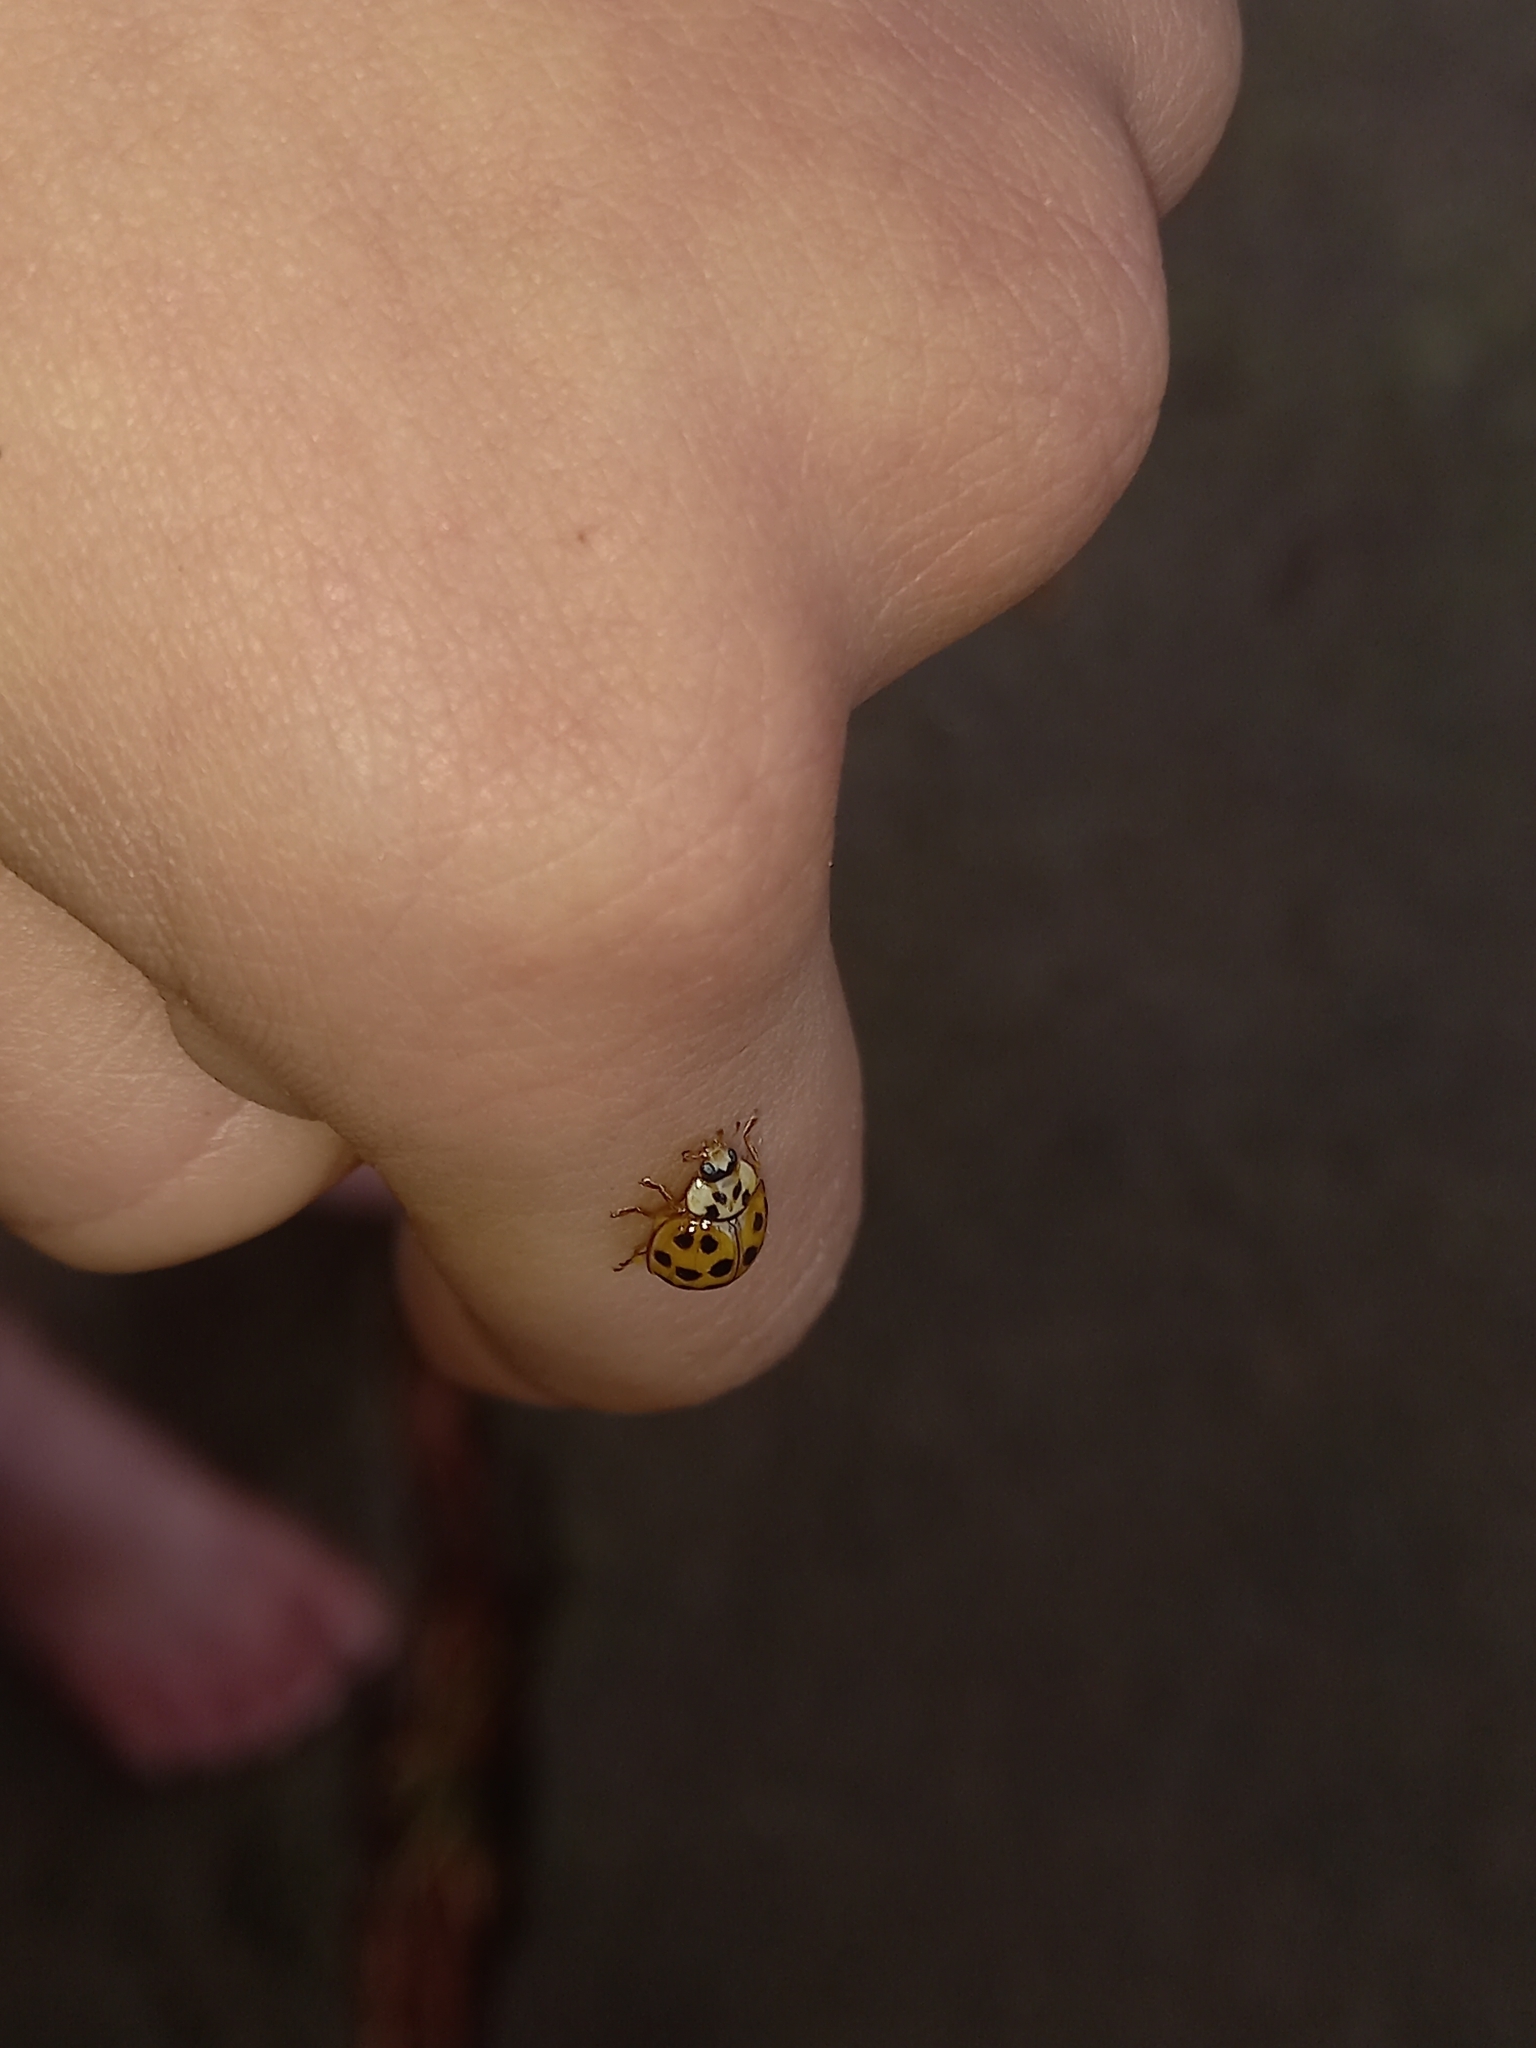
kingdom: Animalia
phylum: Arthropoda
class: Insecta
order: Coleoptera
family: Coccinellidae
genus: Harmonia
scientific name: Harmonia axyridis
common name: Harlequin ladybird
